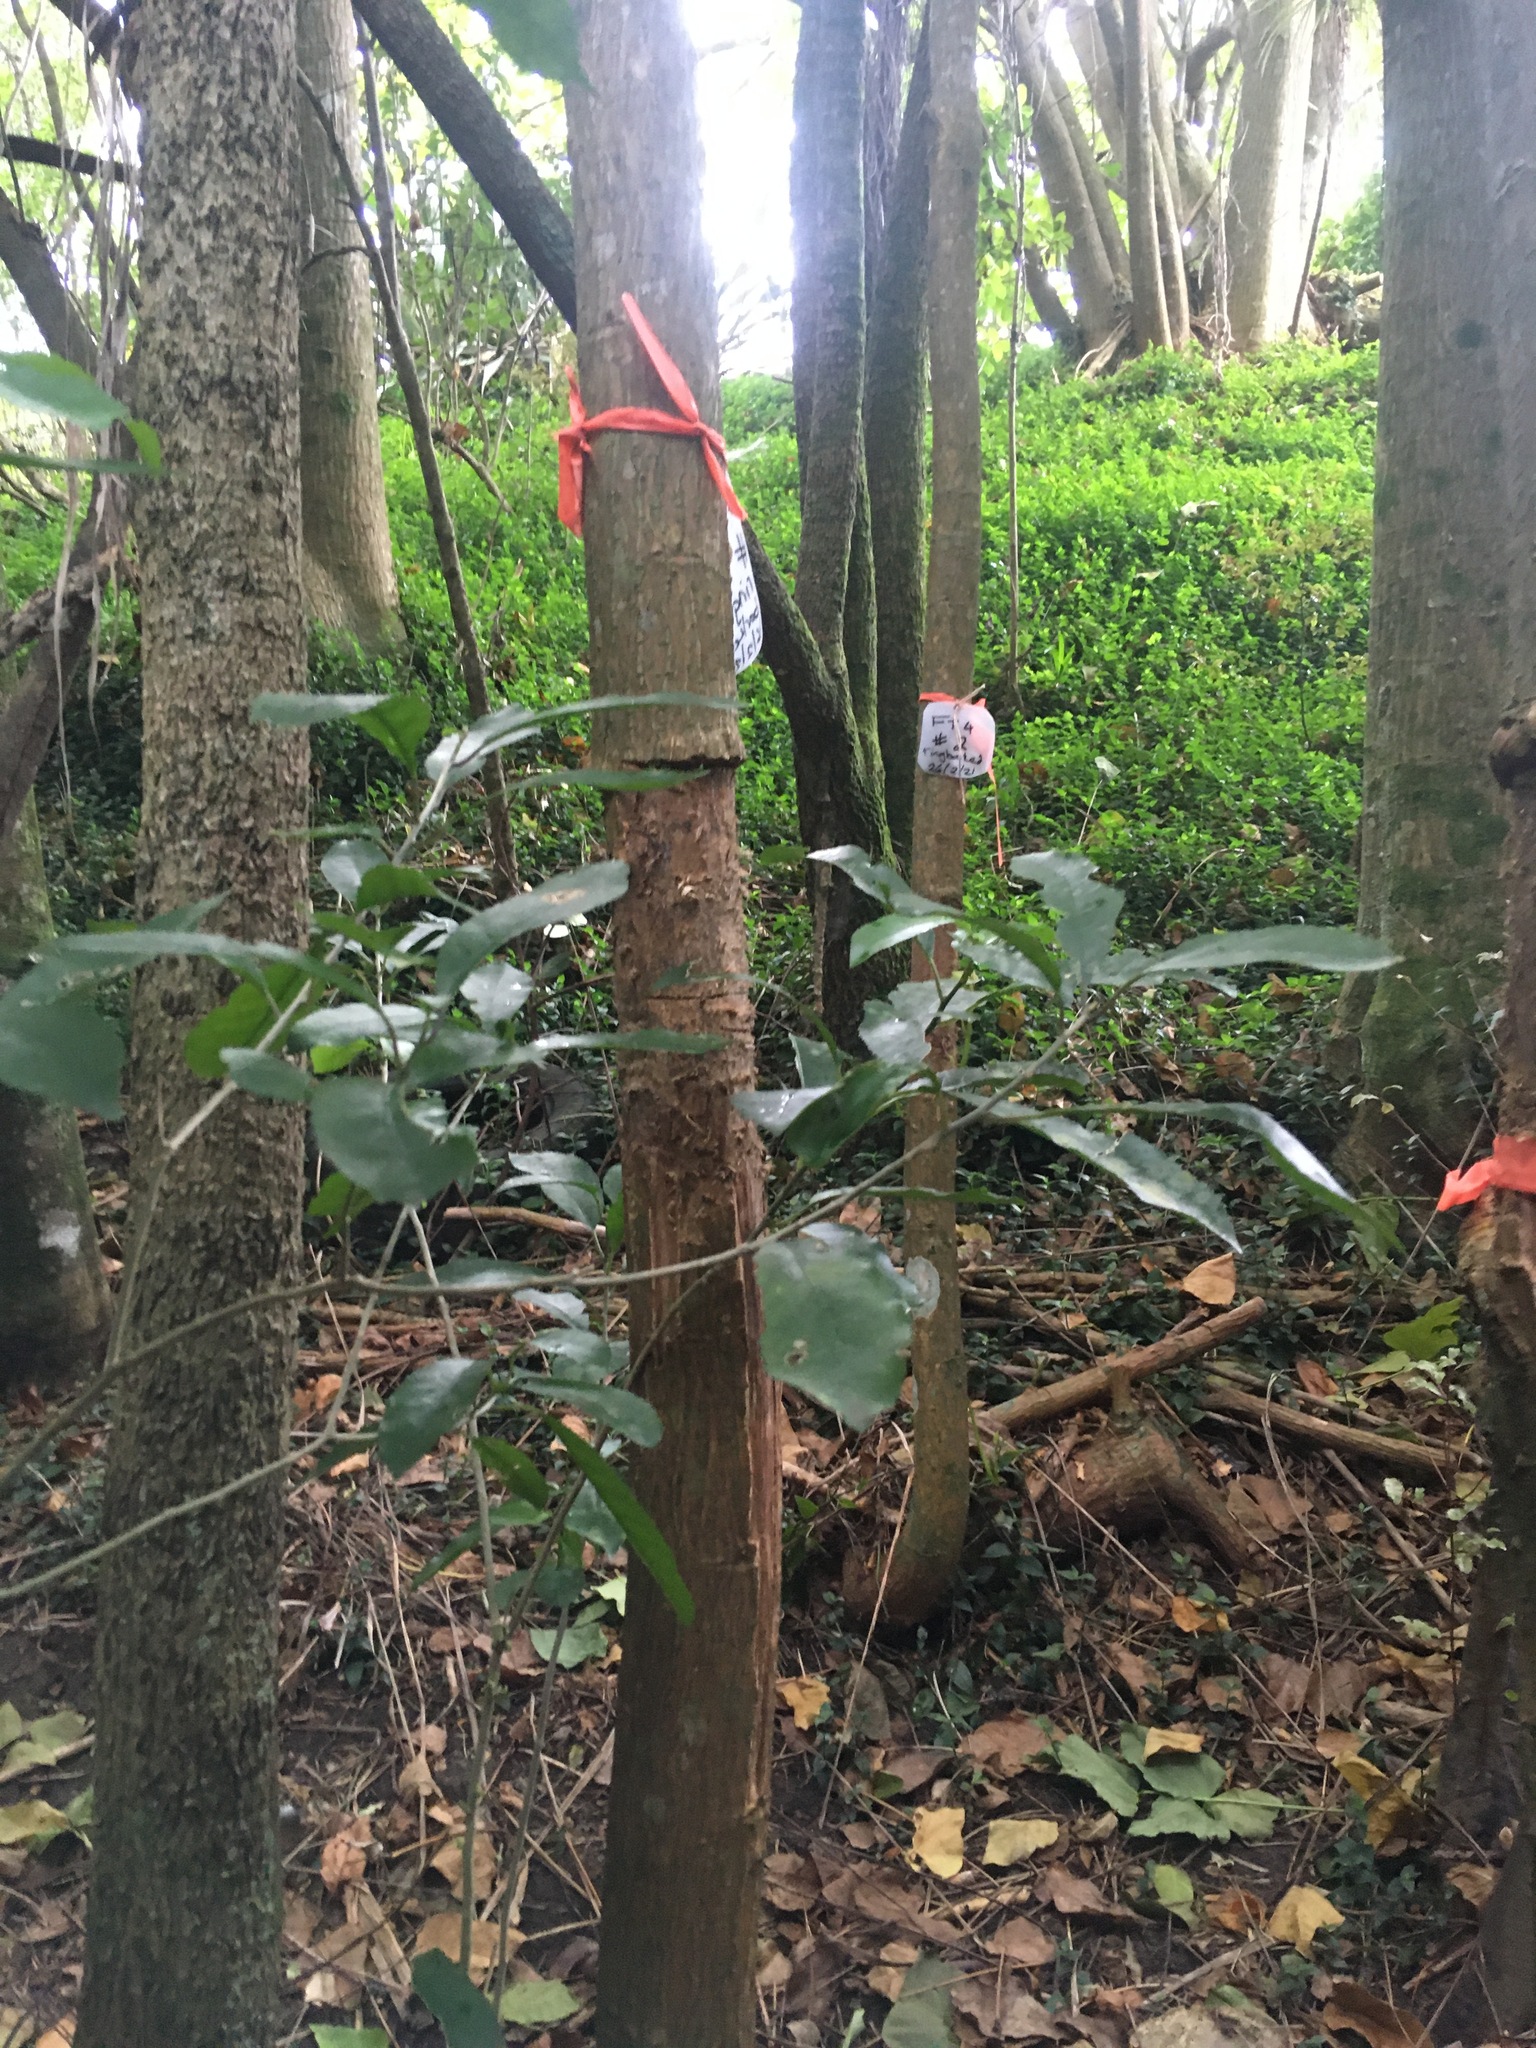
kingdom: Plantae
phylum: Tracheophyta
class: Liliopsida
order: Commelinales
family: Commelinaceae
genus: Tradescantia
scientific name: Tradescantia fluminensis
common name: Wandering-jew
